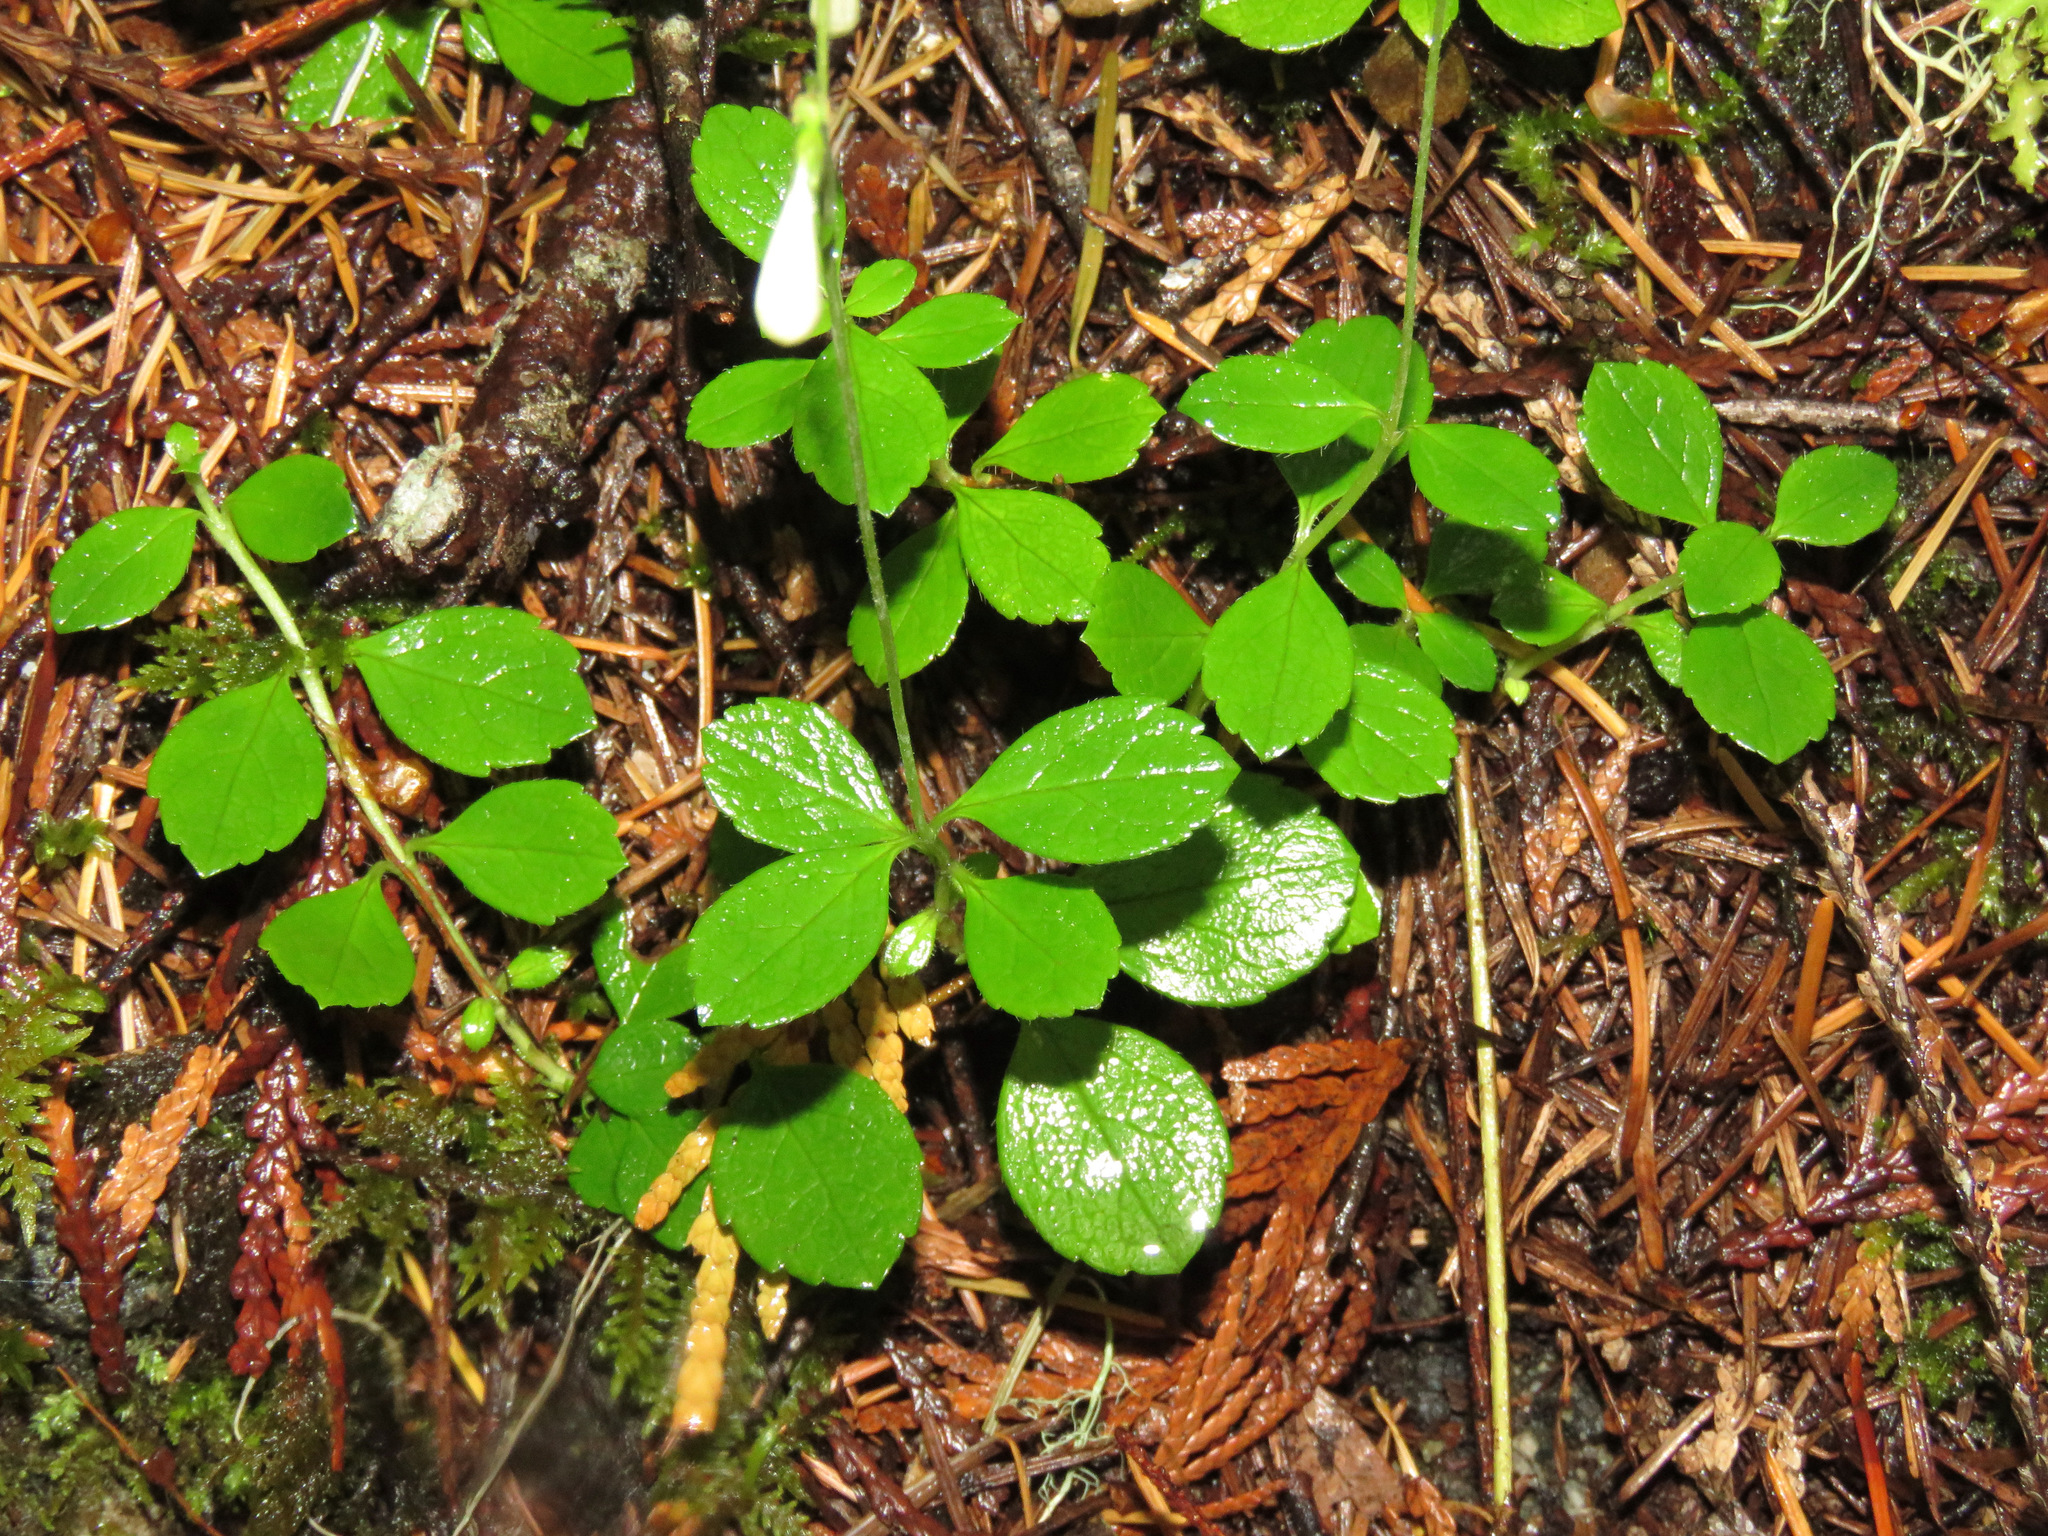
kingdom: Plantae
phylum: Tracheophyta
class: Magnoliopsida
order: Dipsacales
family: Caprifoliaceae
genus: Linnaea
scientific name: Linnaea borealis
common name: Twinflower
